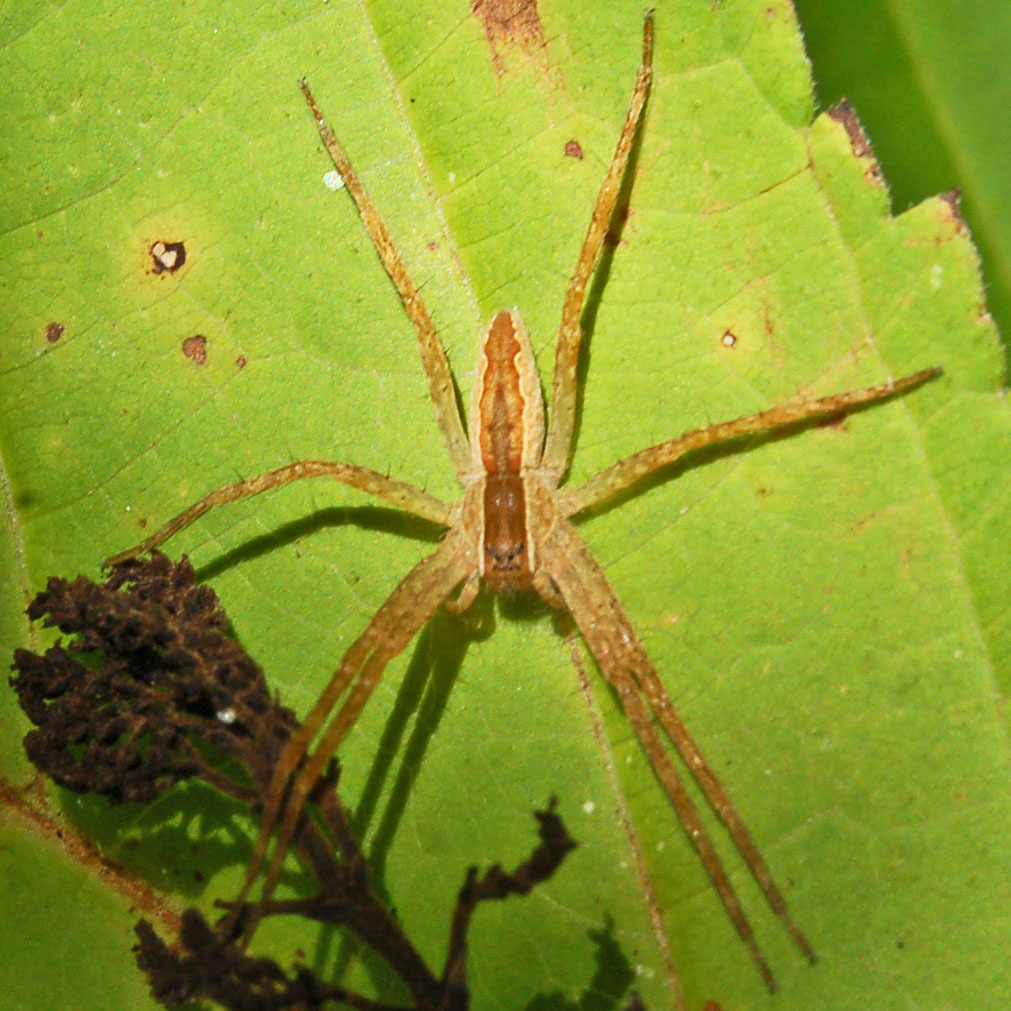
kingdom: Animalia
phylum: Arthropoda
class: Arachnida
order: Araneae
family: Pisauridae
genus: Pisaurina
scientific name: Pisaurina mira
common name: American nursery web spider
